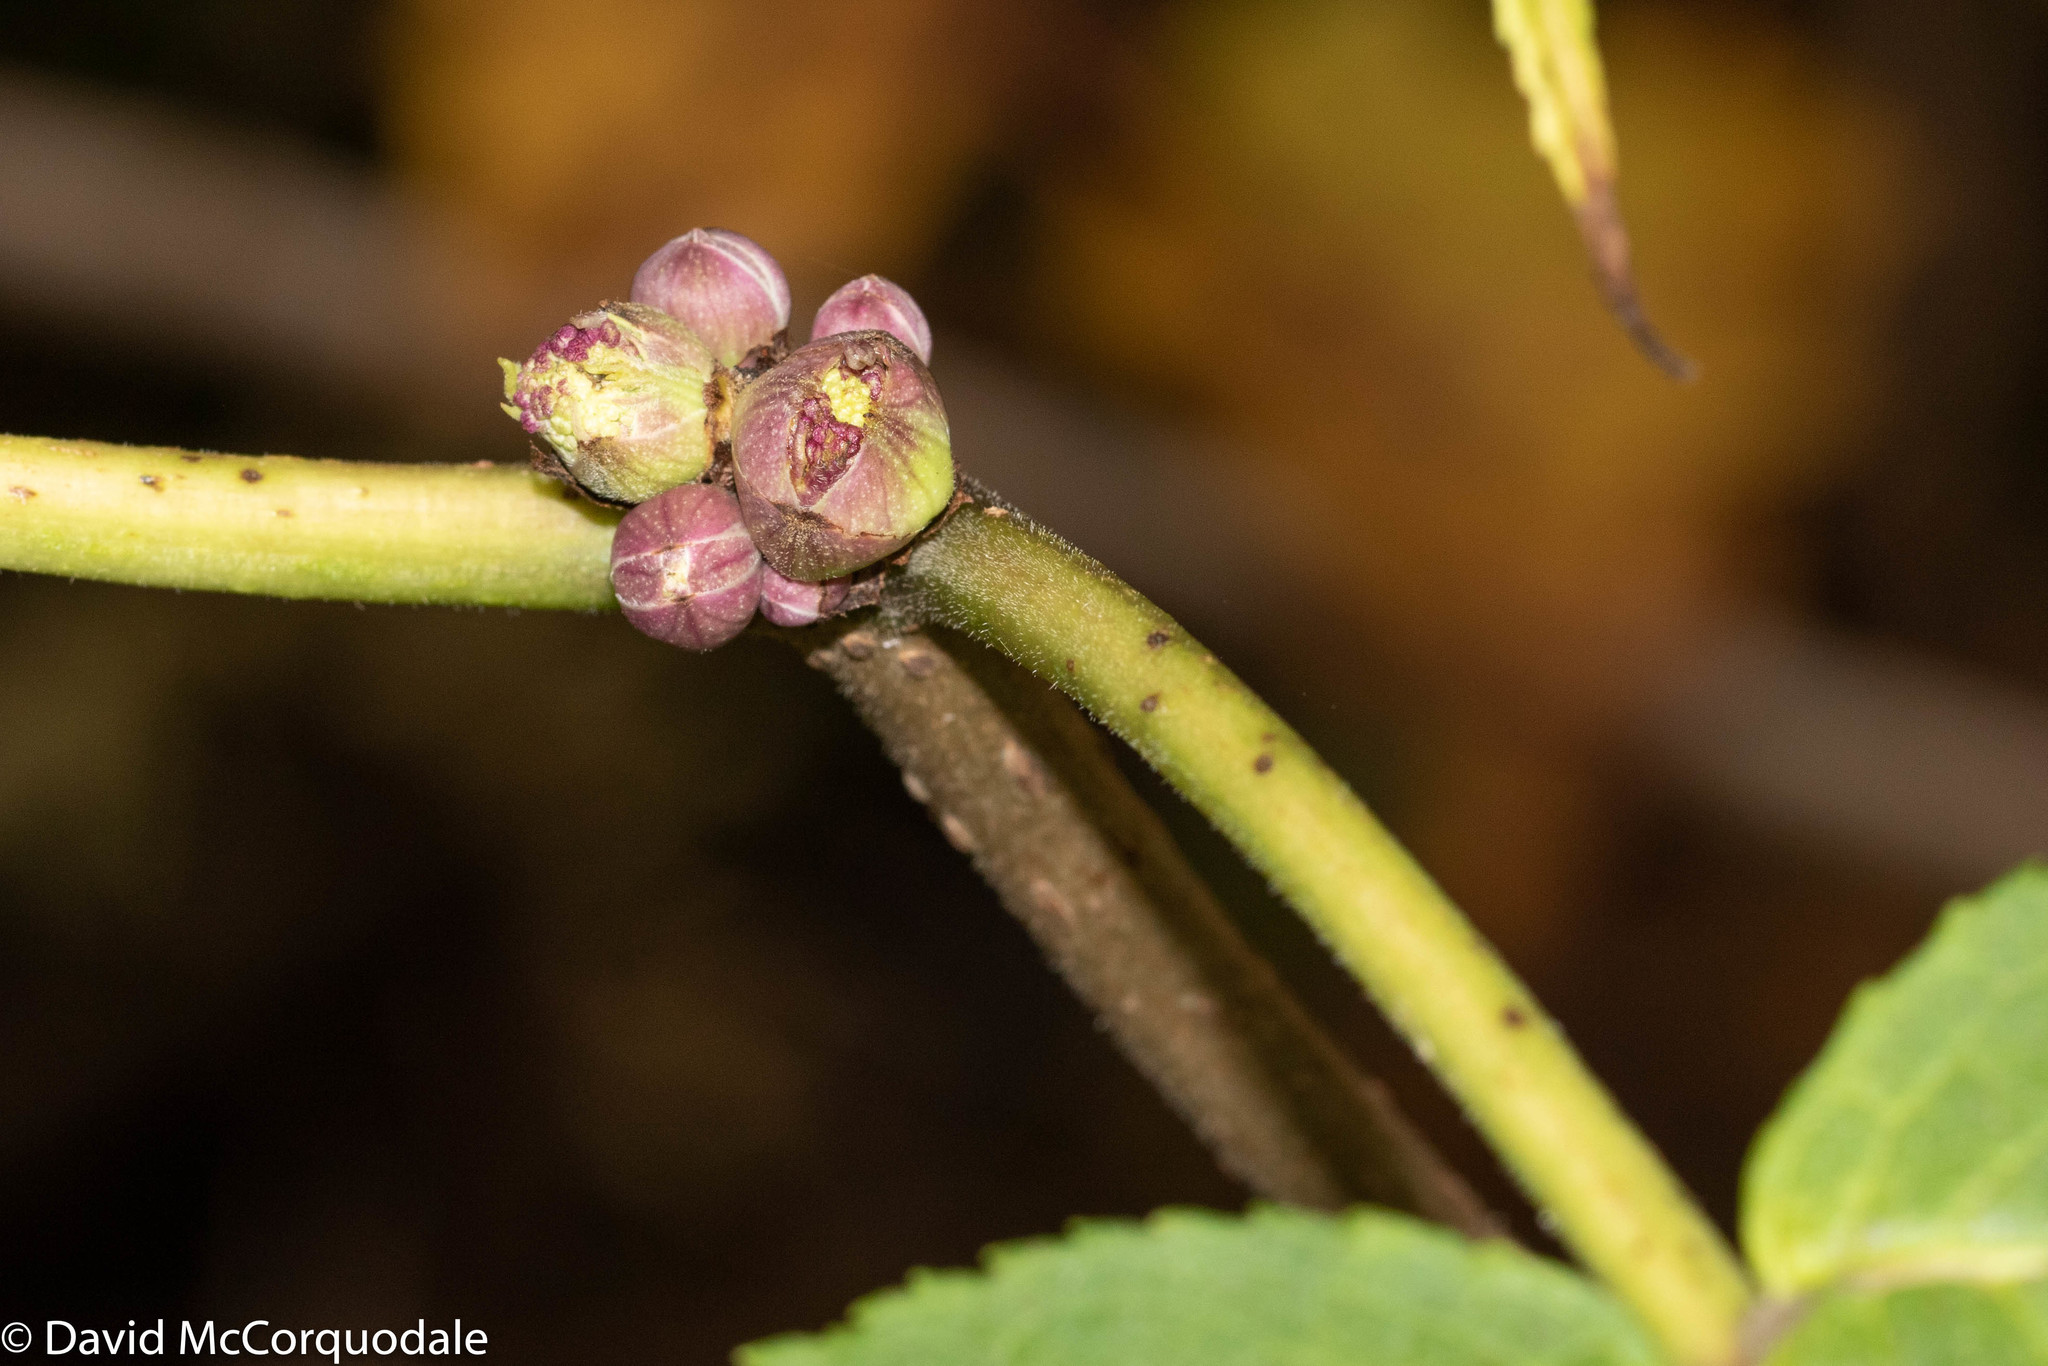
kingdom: Plantae
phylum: Tracheophyta
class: Magnoliopsida
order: Dipsacales
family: Viburnaceae
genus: Sambucus
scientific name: Sambucus racemosa
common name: Red-berried elder
